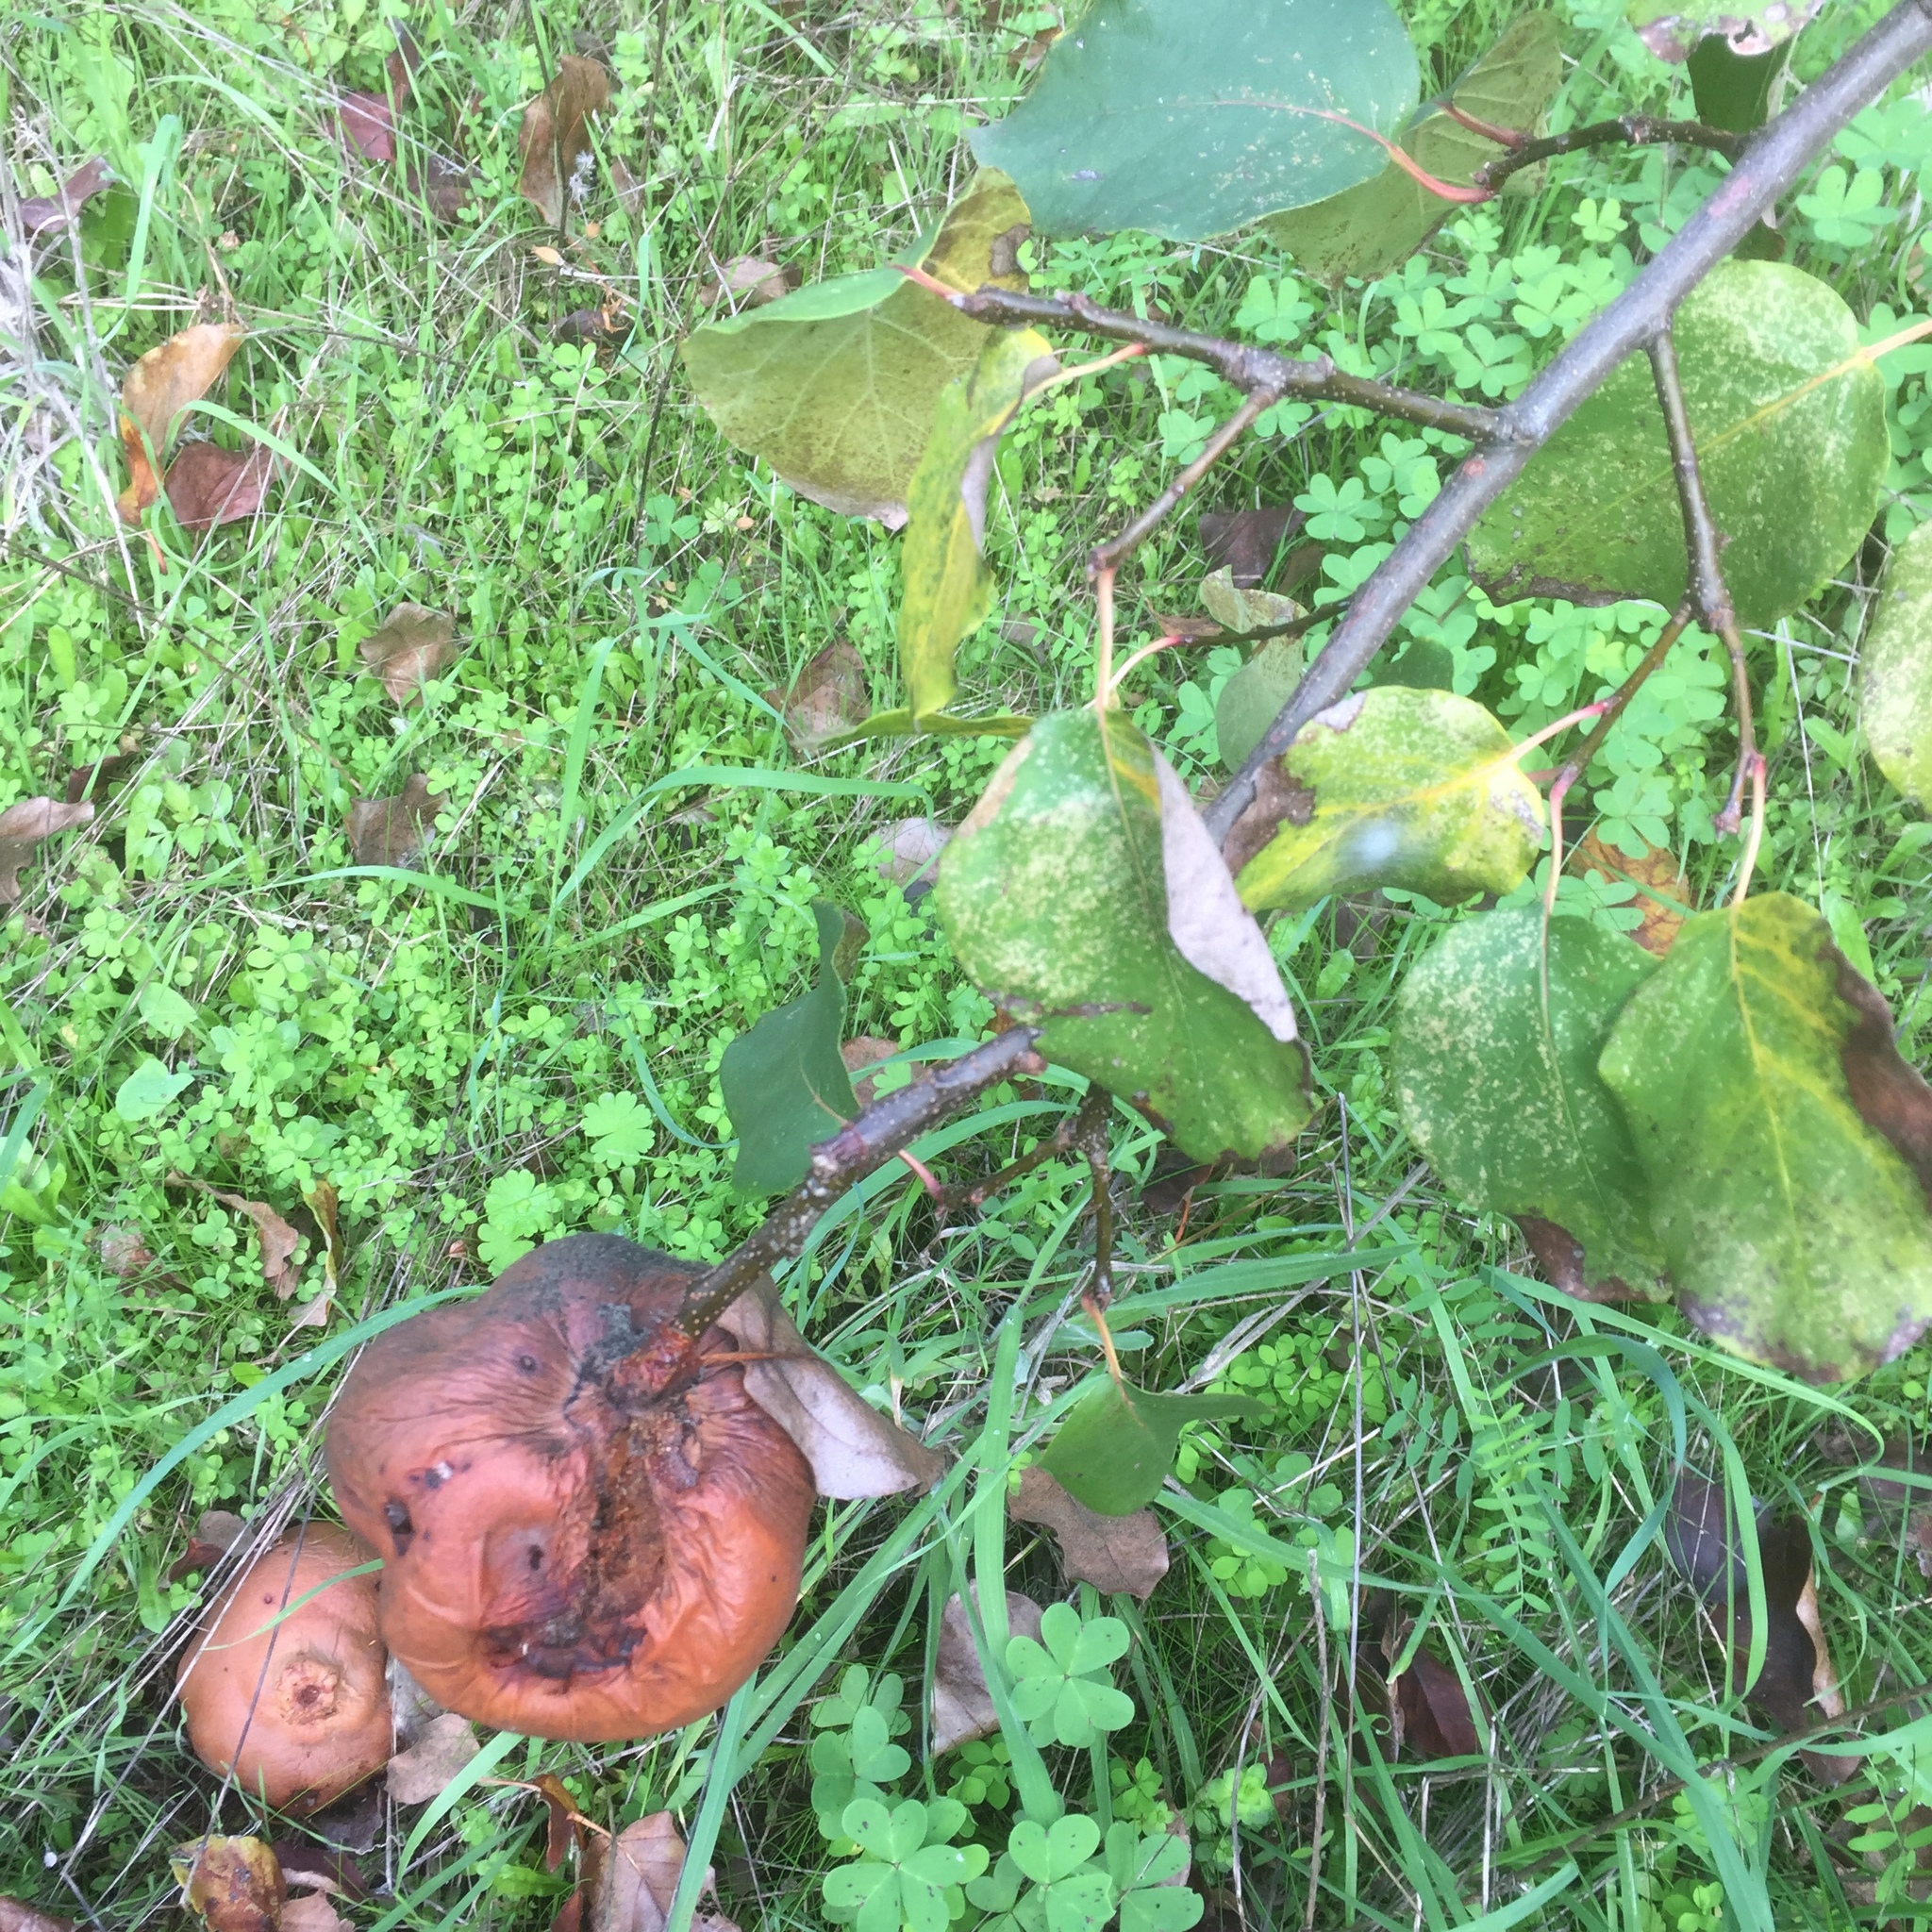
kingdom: Plantae
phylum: Tracheophyta
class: Magnoliopsida
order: Rosales
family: Rosaceae
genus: Cydonia
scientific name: Cydonia oblonga
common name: Quince
